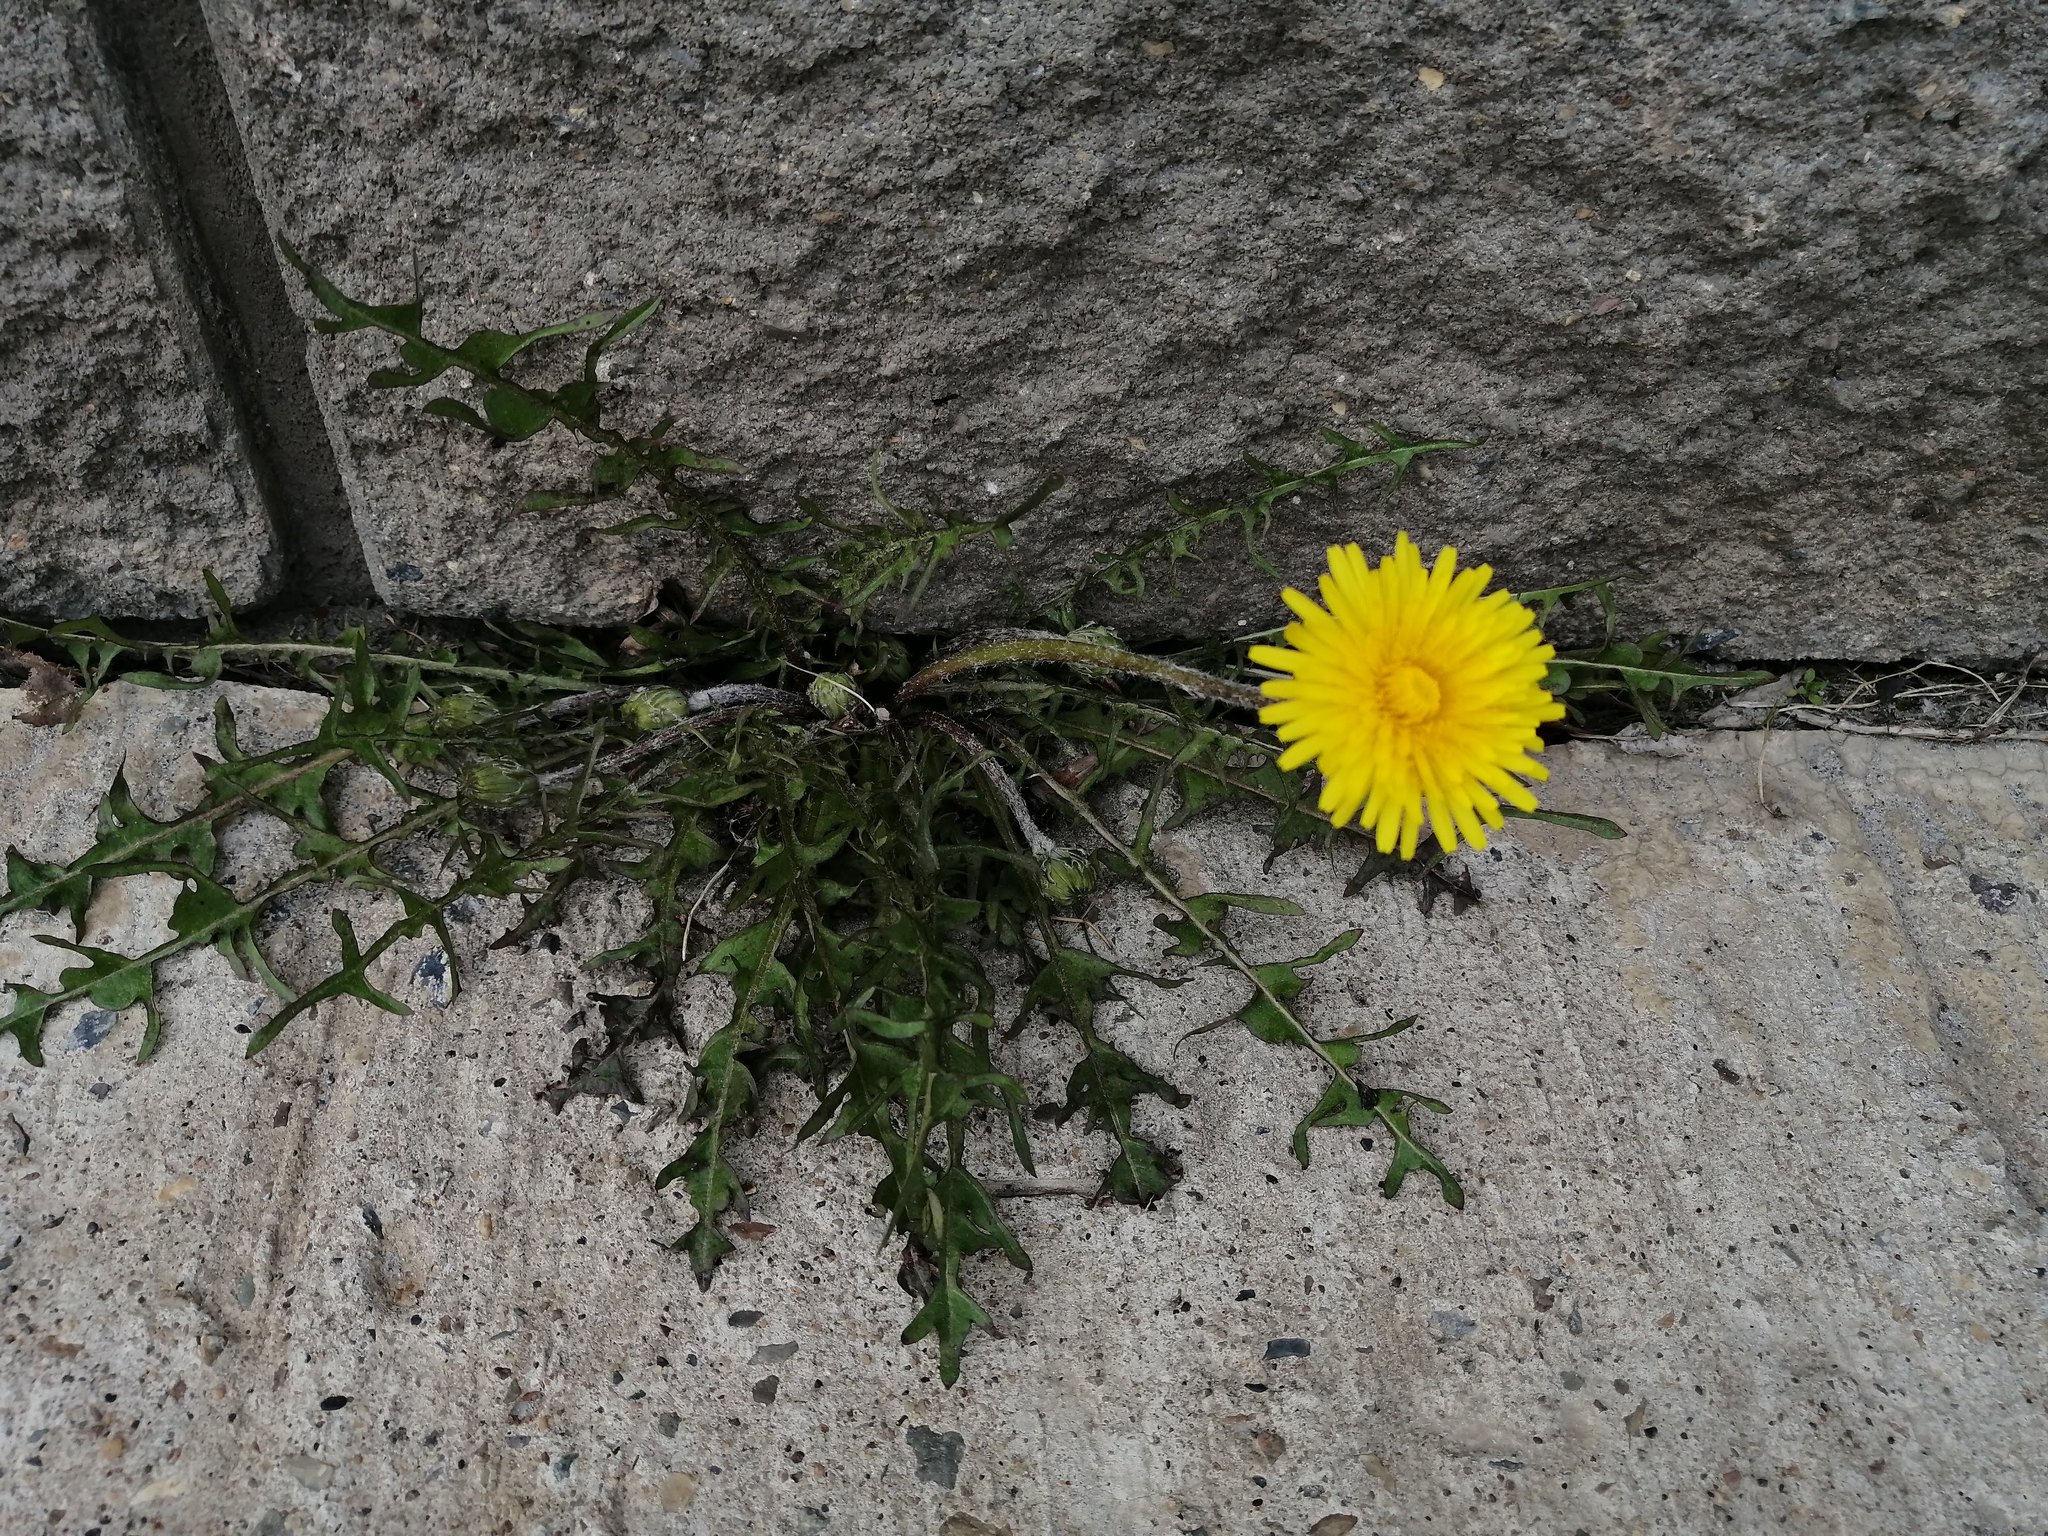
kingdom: Plantae
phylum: Tracheophyta
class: Magnoliopsida
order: Asterales
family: Asteraceae
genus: Taraxacum
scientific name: Taraxacum officinale
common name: Common dandelion
